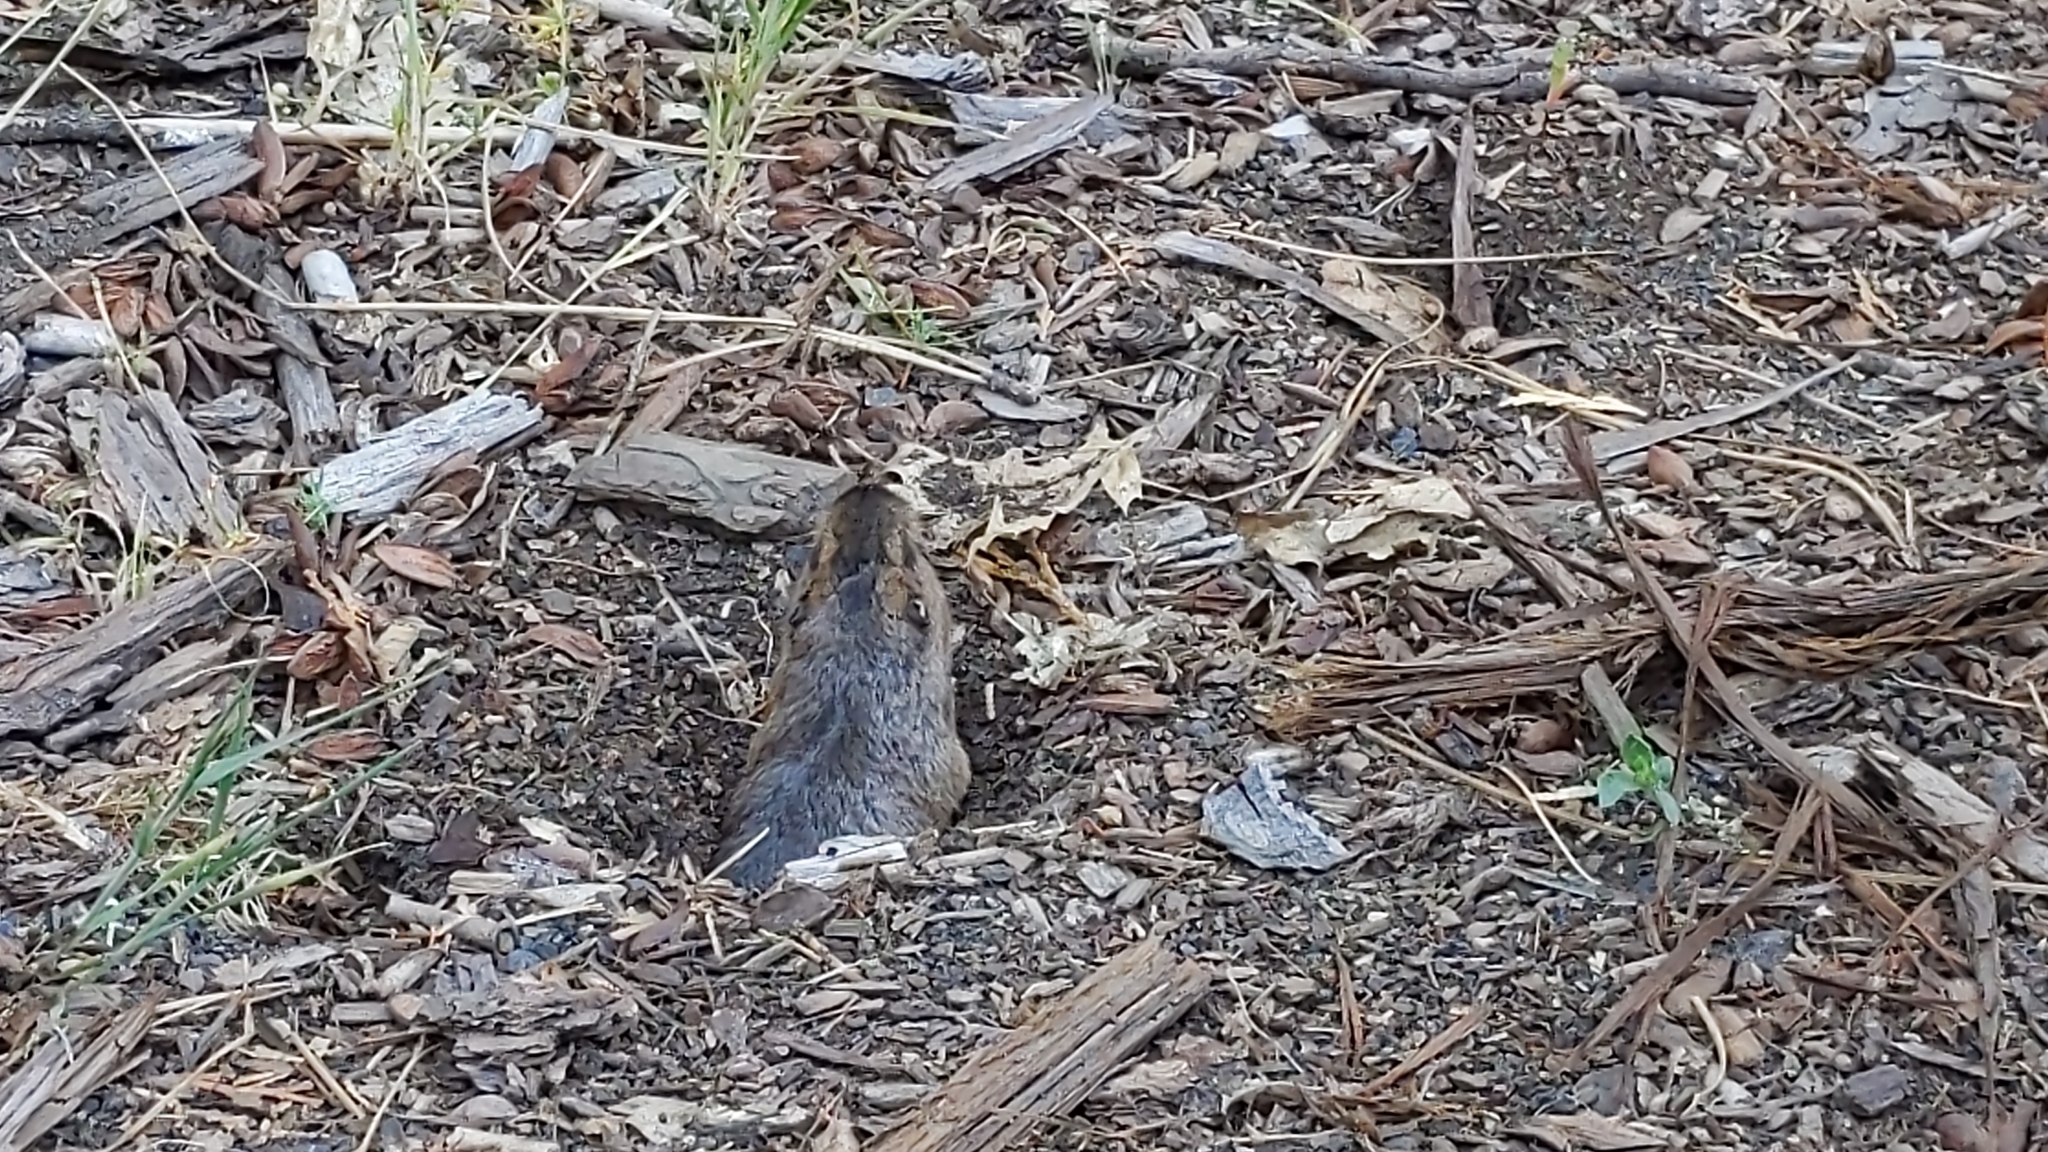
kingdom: Animalia
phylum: Chordata
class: Mammalia
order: Rodentia
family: Geomyidae
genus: Thomomys
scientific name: Thomomys bottae
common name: Botta's pocket gopher
